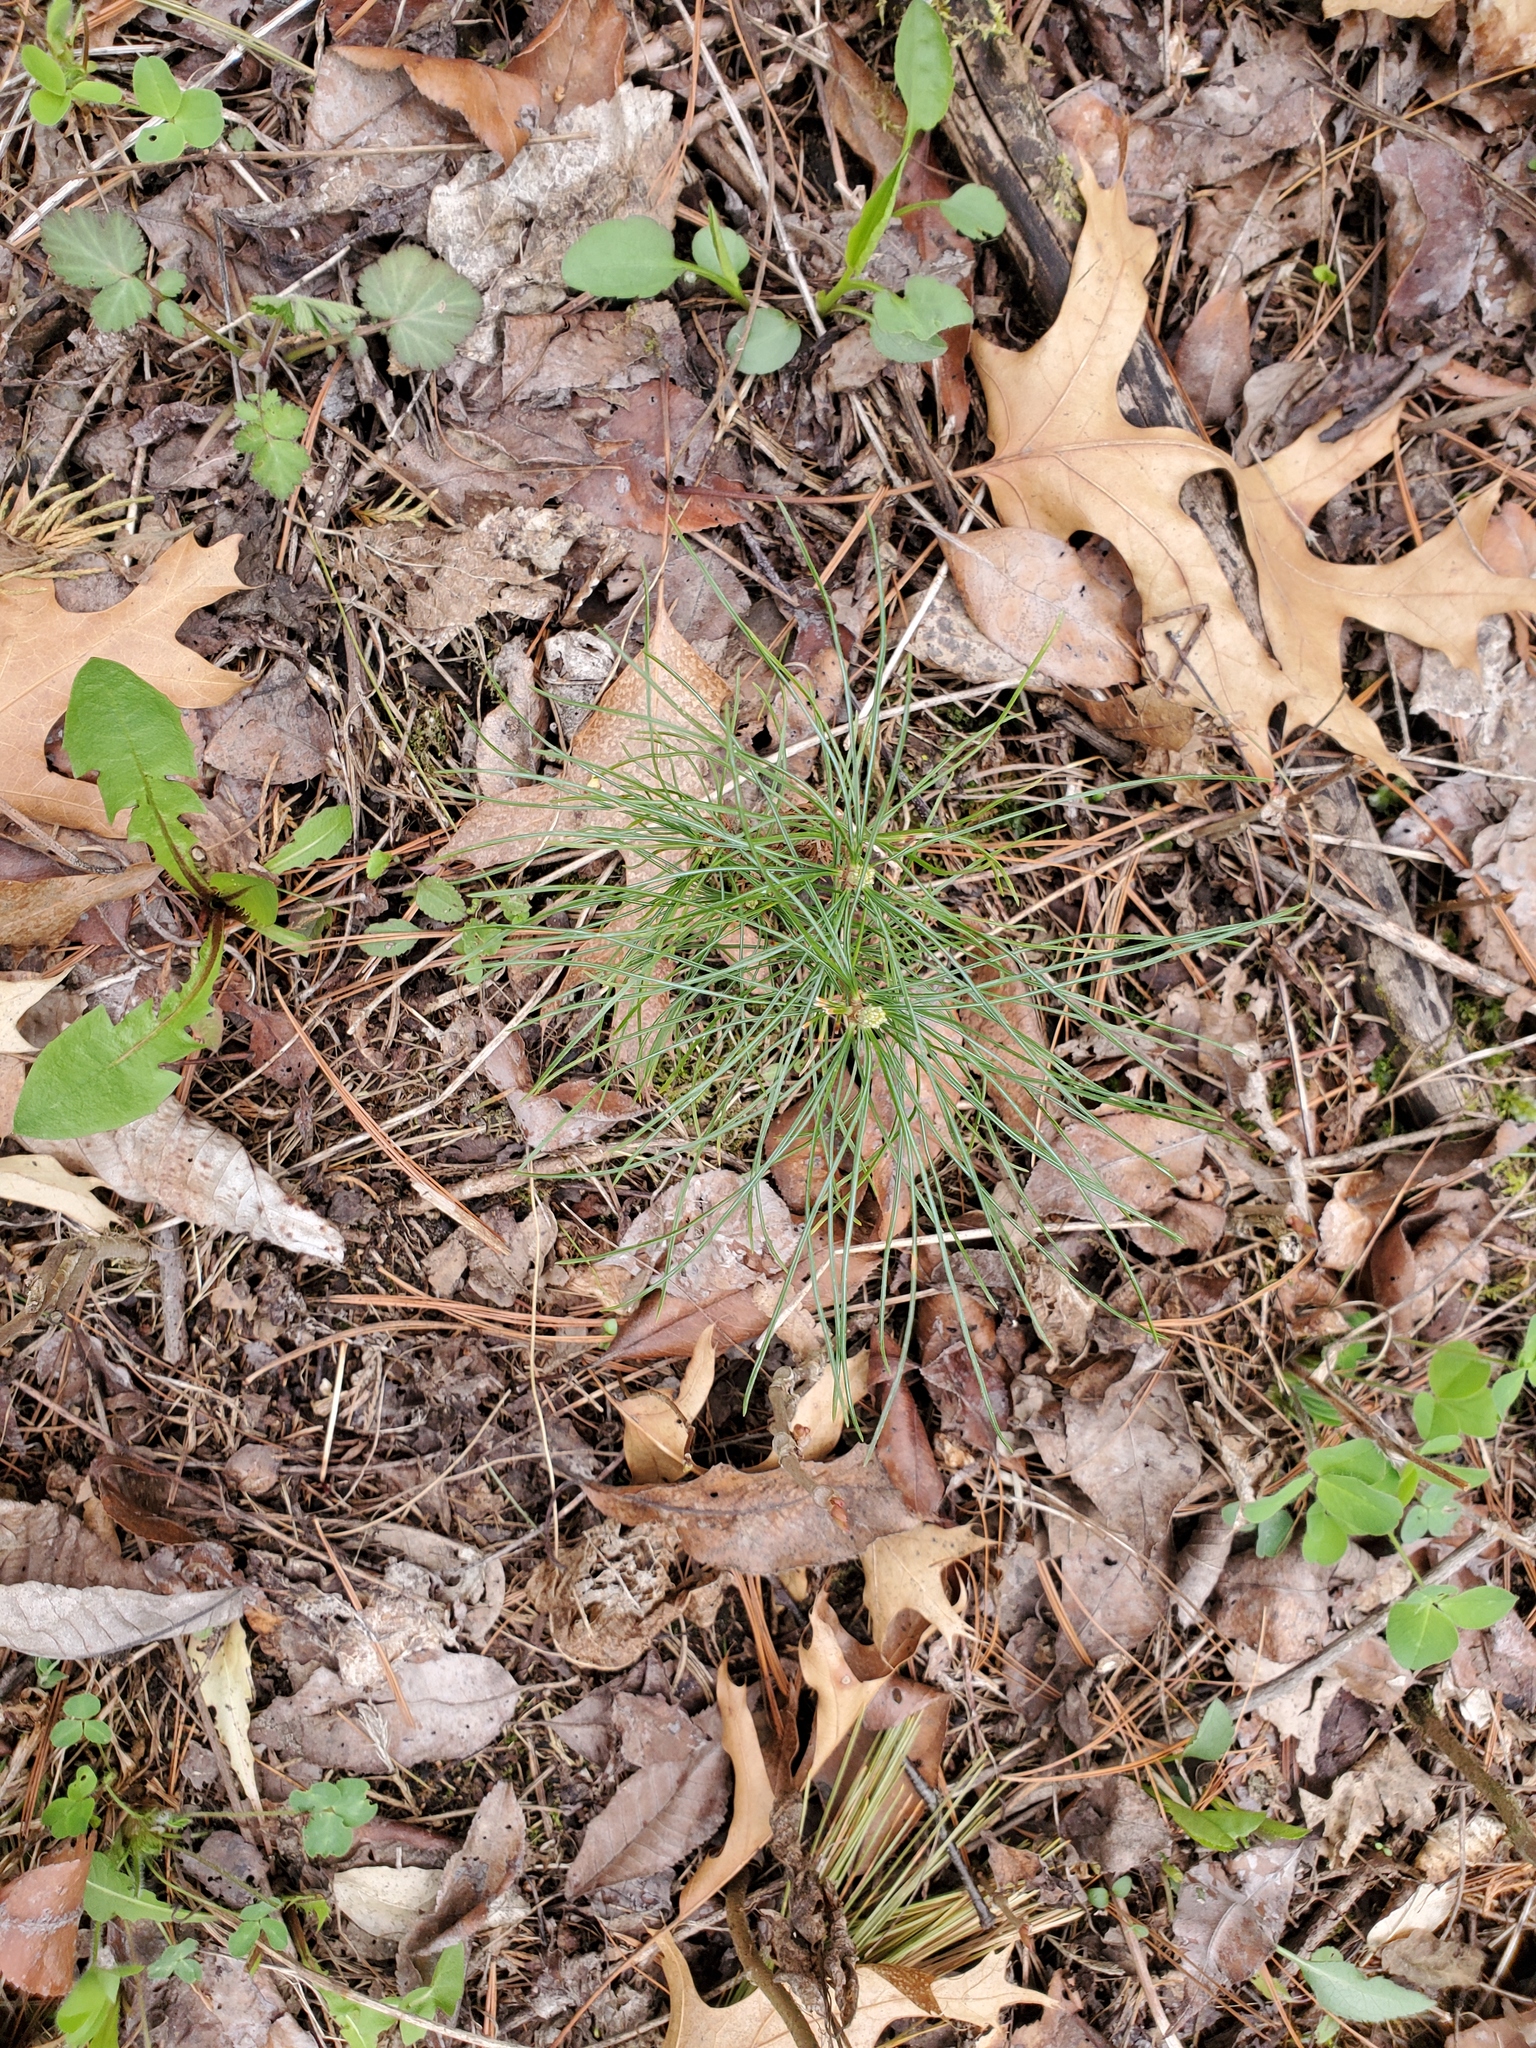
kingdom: Plantae
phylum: Tracheophyta
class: Pinopsida
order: Pinales
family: Pinaceae
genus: Pinus
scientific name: Pinus strobus
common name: Weymouth pine
